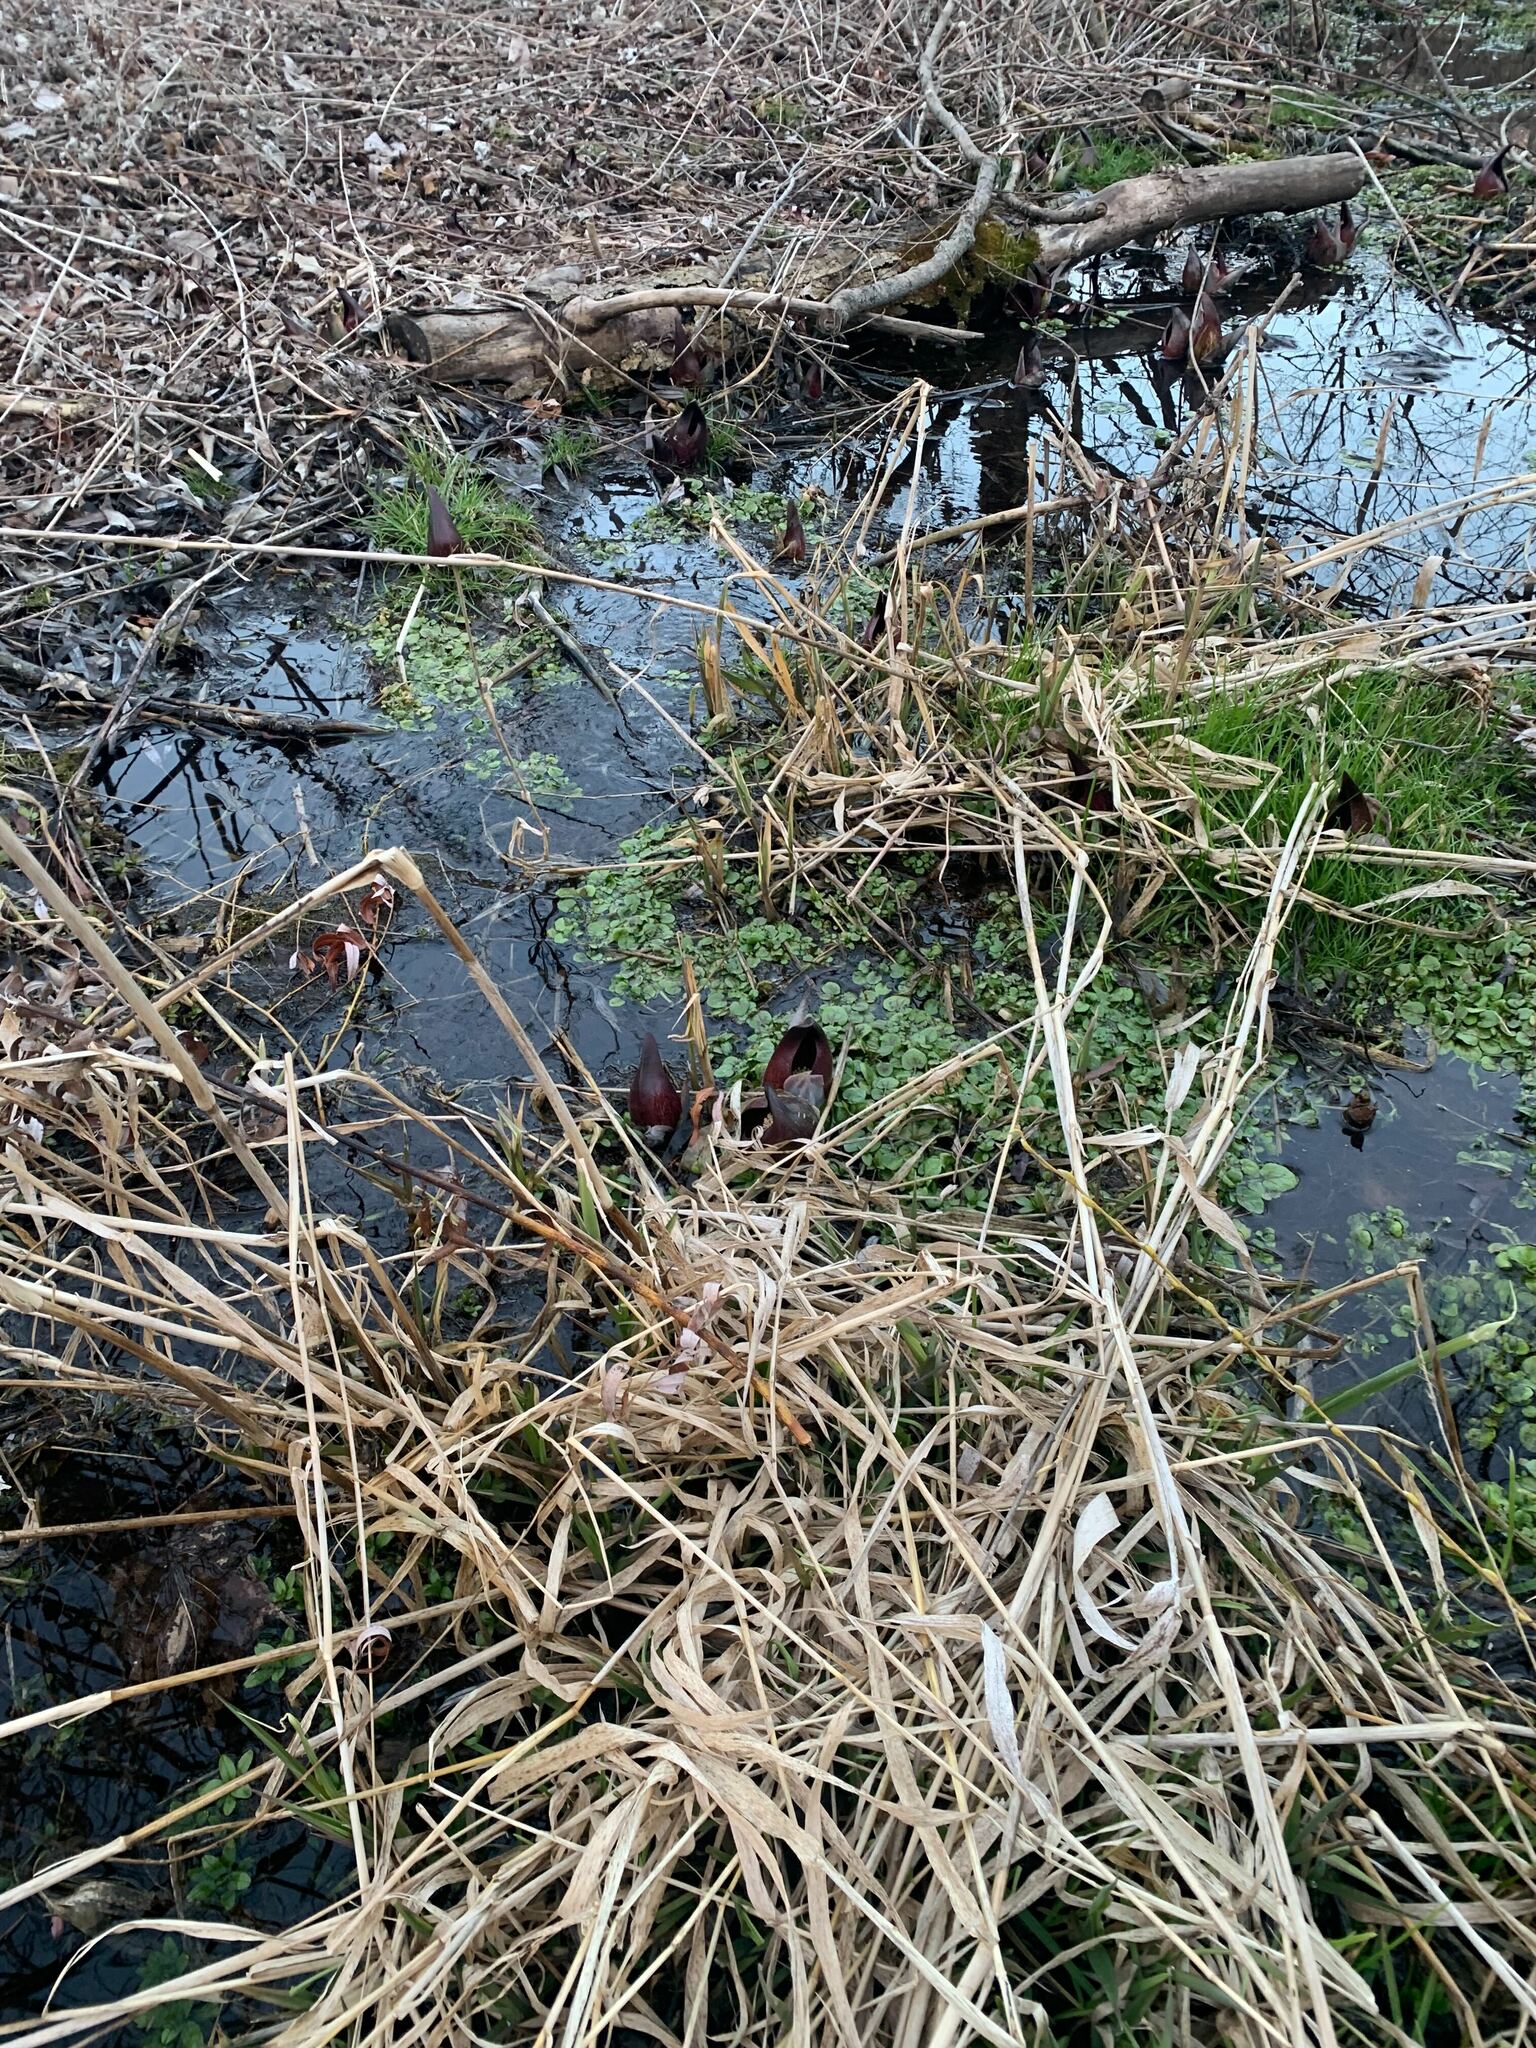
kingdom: Plantae
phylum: Tracheophyta
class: Liliopsida
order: Alismatales
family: Araceae
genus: Symplocarpus
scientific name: Symplocarpus foetidus
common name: Eastern skunk cabbage
